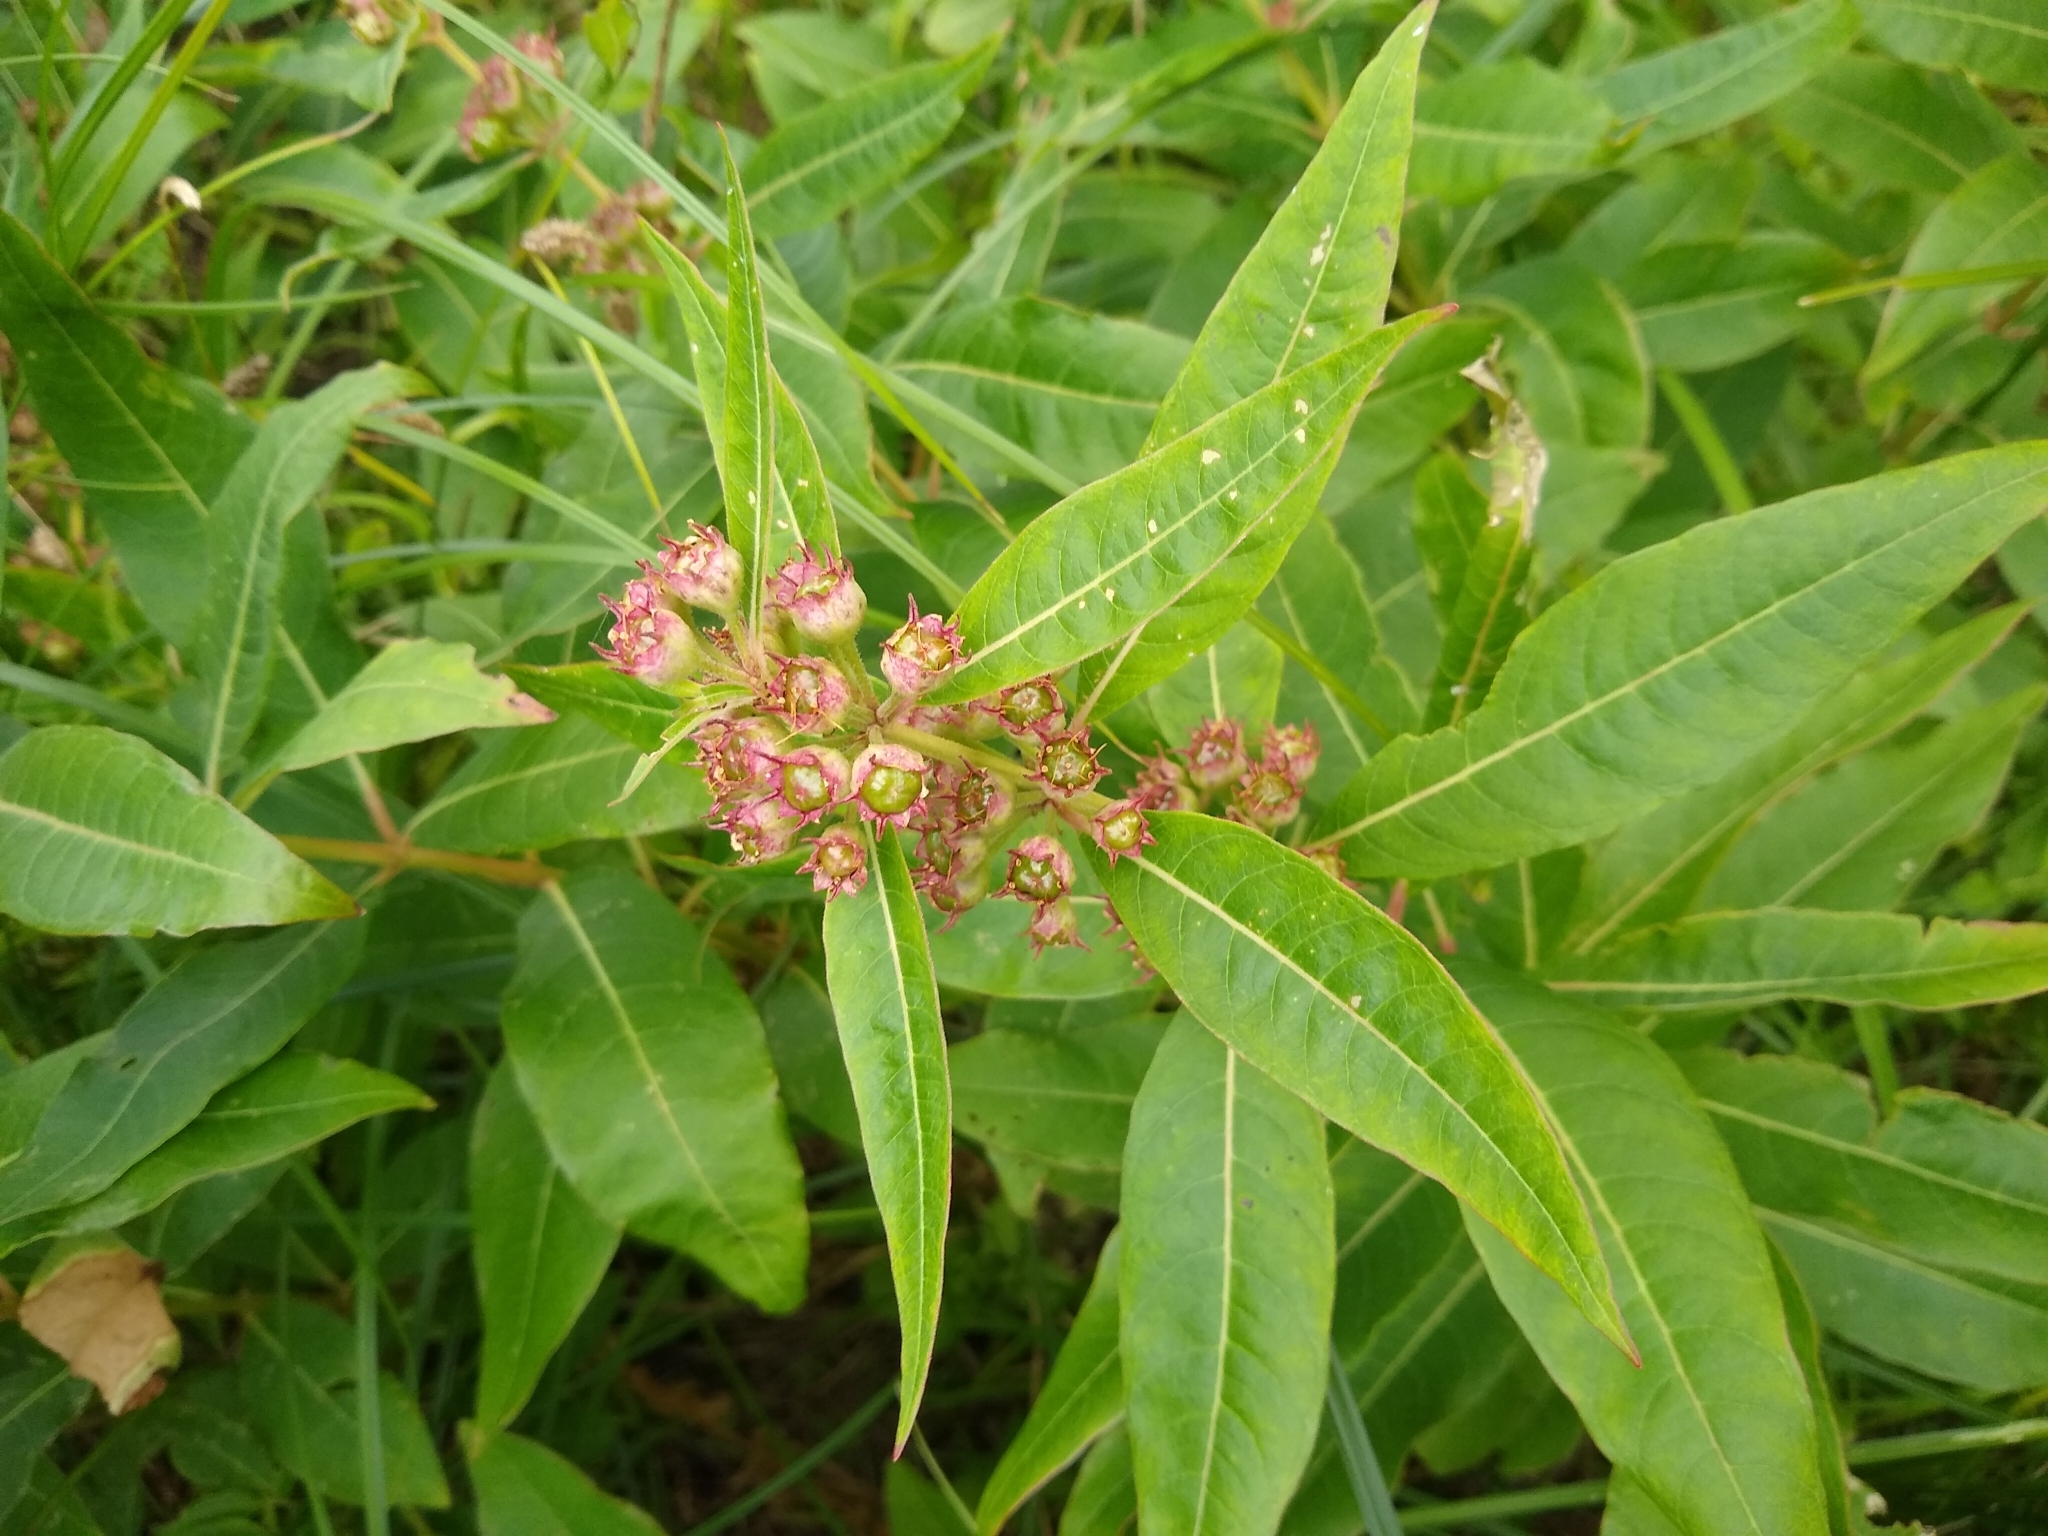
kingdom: Plantae
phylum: Tracheophyta
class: Magnoliopsida
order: Myrtales
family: Lythraceae
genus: Decodon
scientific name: Decodon verticillatus
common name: Hairy swamp loosestrife
